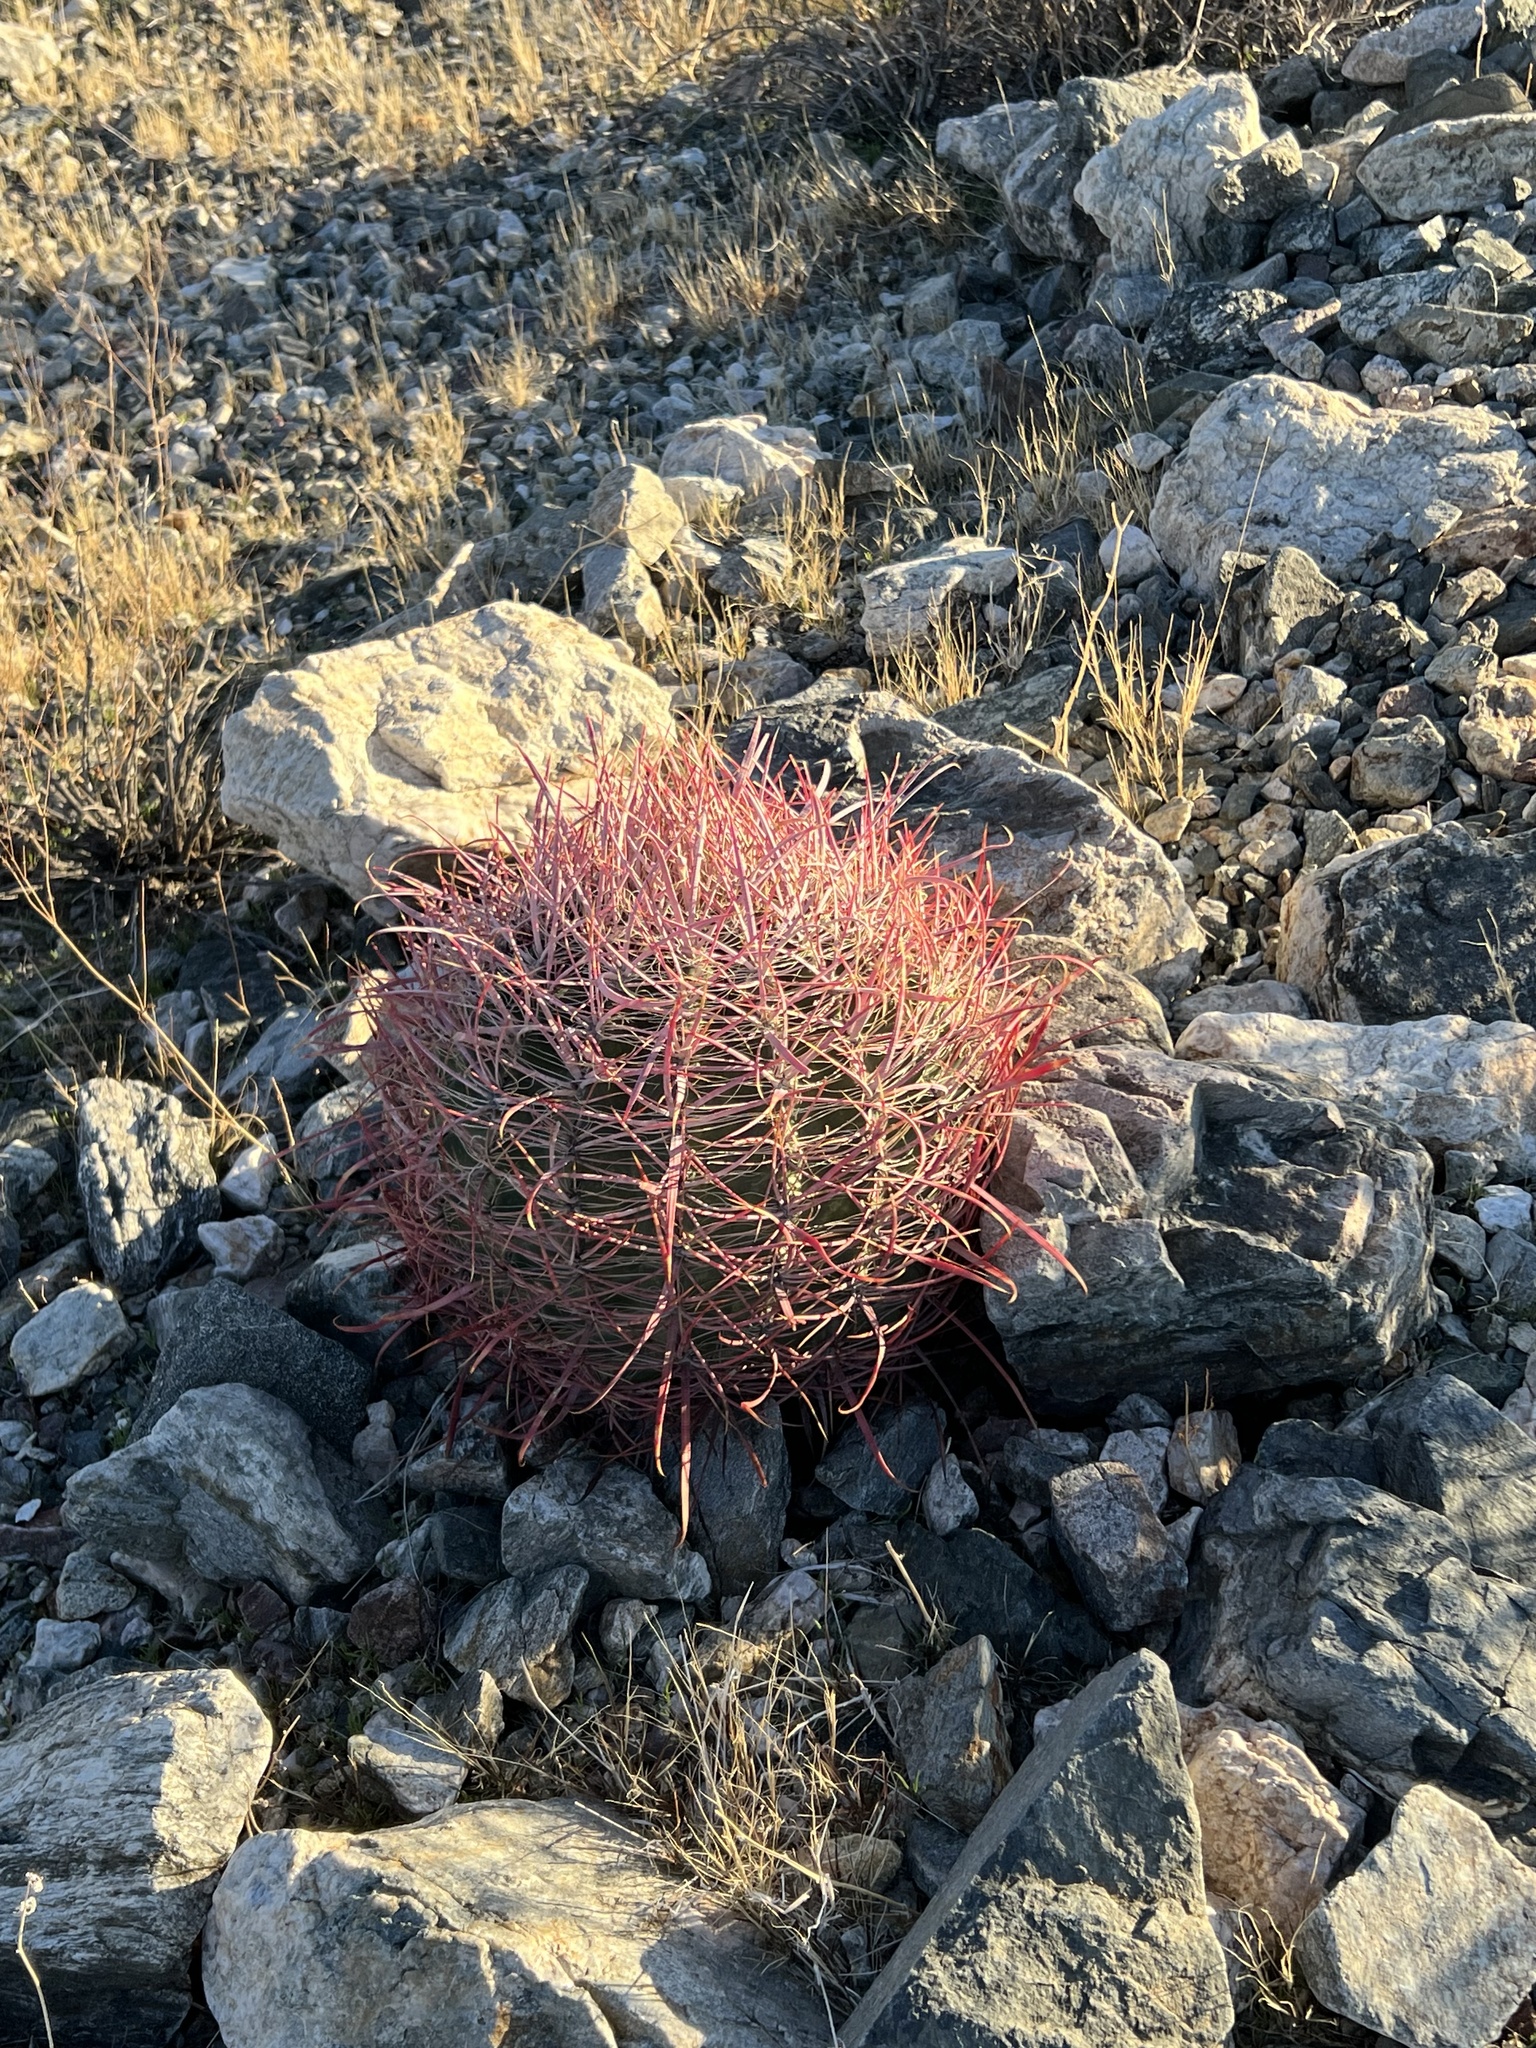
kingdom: Plantae
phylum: Tracheophyta
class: Magnoliopsida
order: Caryophyllales
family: Cactaceae
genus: Ferocactus
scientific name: Ferocactus cylindraceus
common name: California barrel cactus
